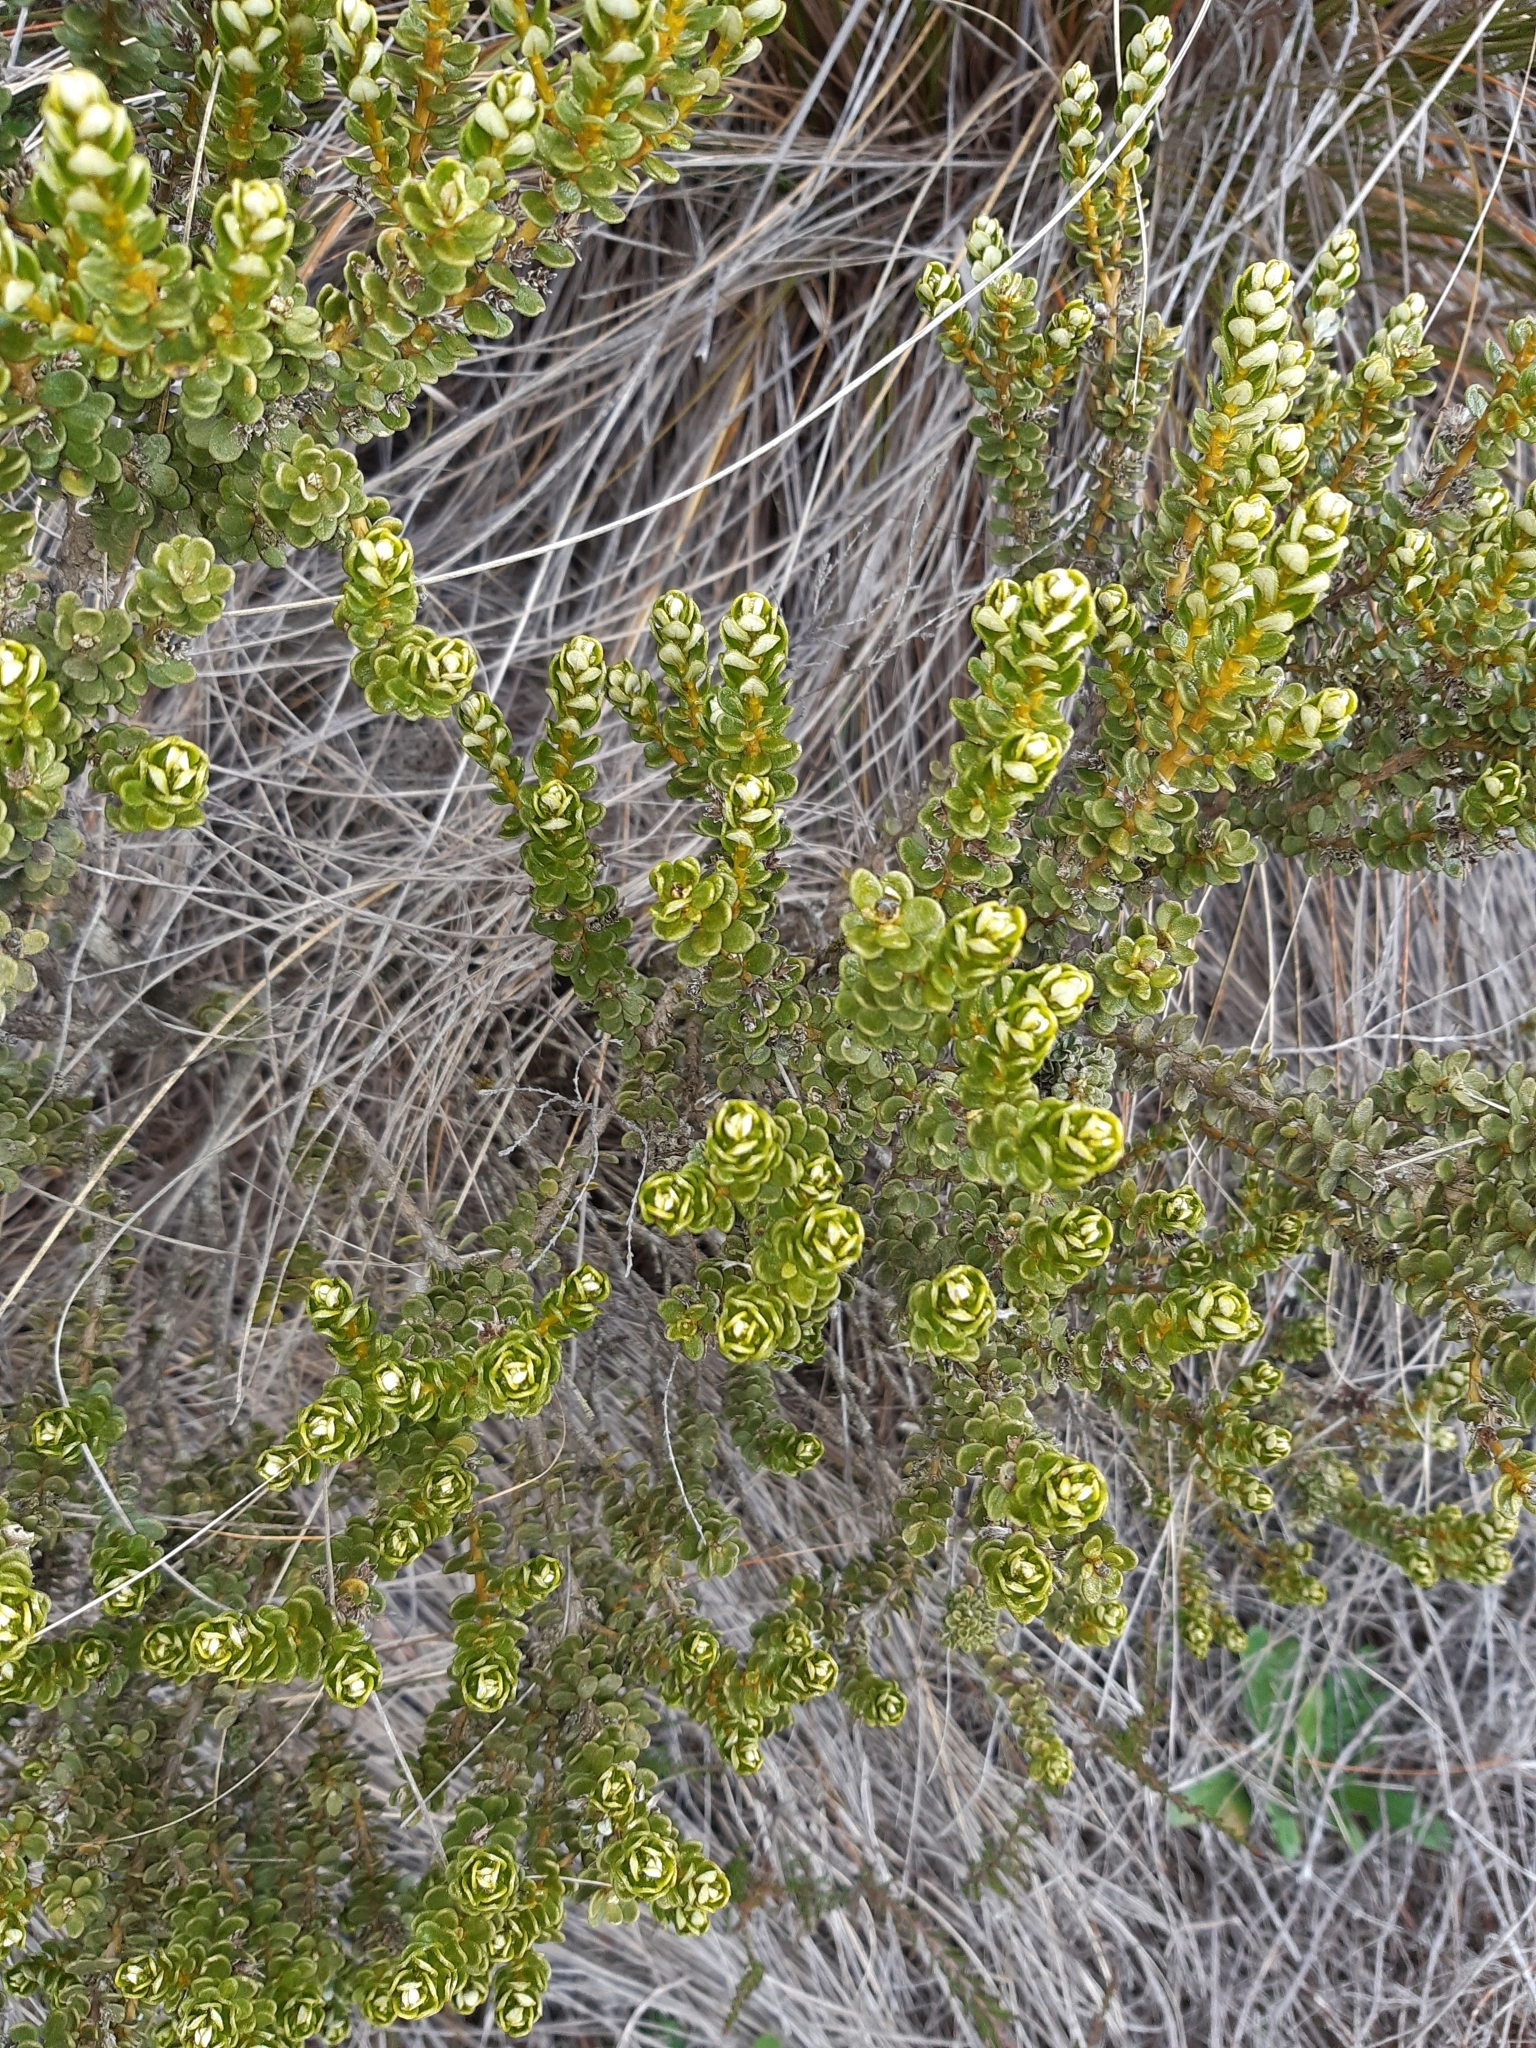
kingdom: Plantae
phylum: Tracheophyta
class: Magnoliopsida
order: Asterales
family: Asteraceae
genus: Olearia
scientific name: Olearia nummularifolia
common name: Sticky daisybush
